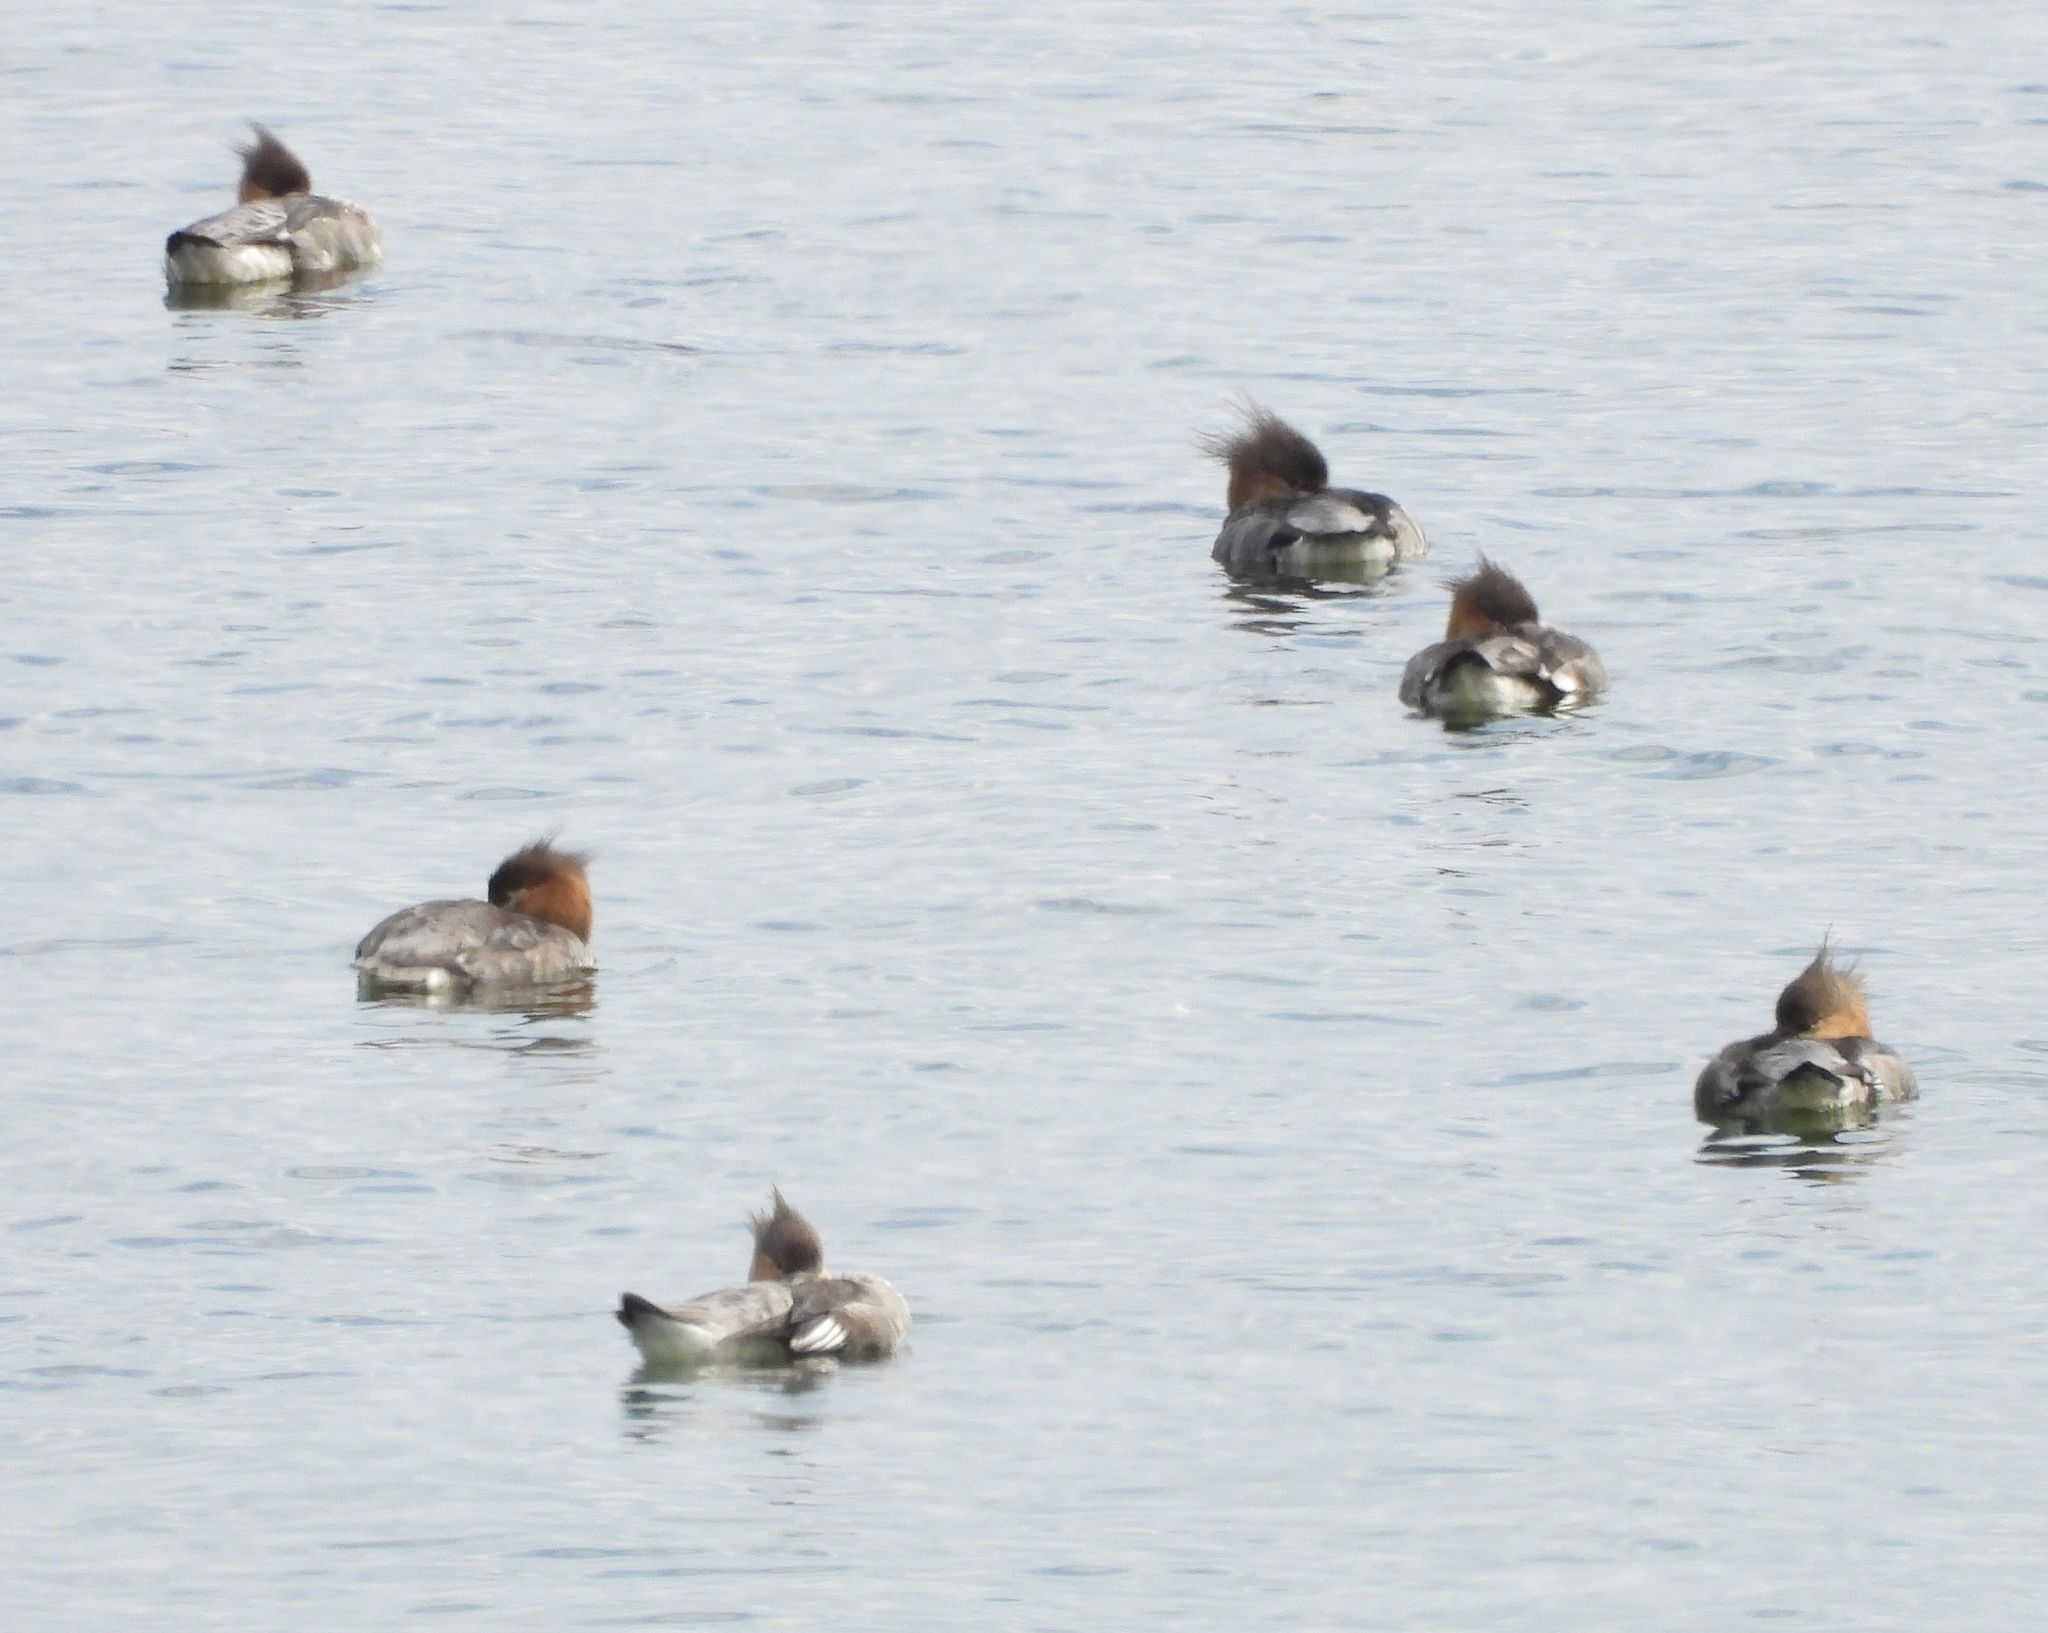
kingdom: Animalia
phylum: Chordata
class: Aves
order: Anseriformes
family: Anatidae
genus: Mergus
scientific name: Mergus merganser
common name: Common merganser
